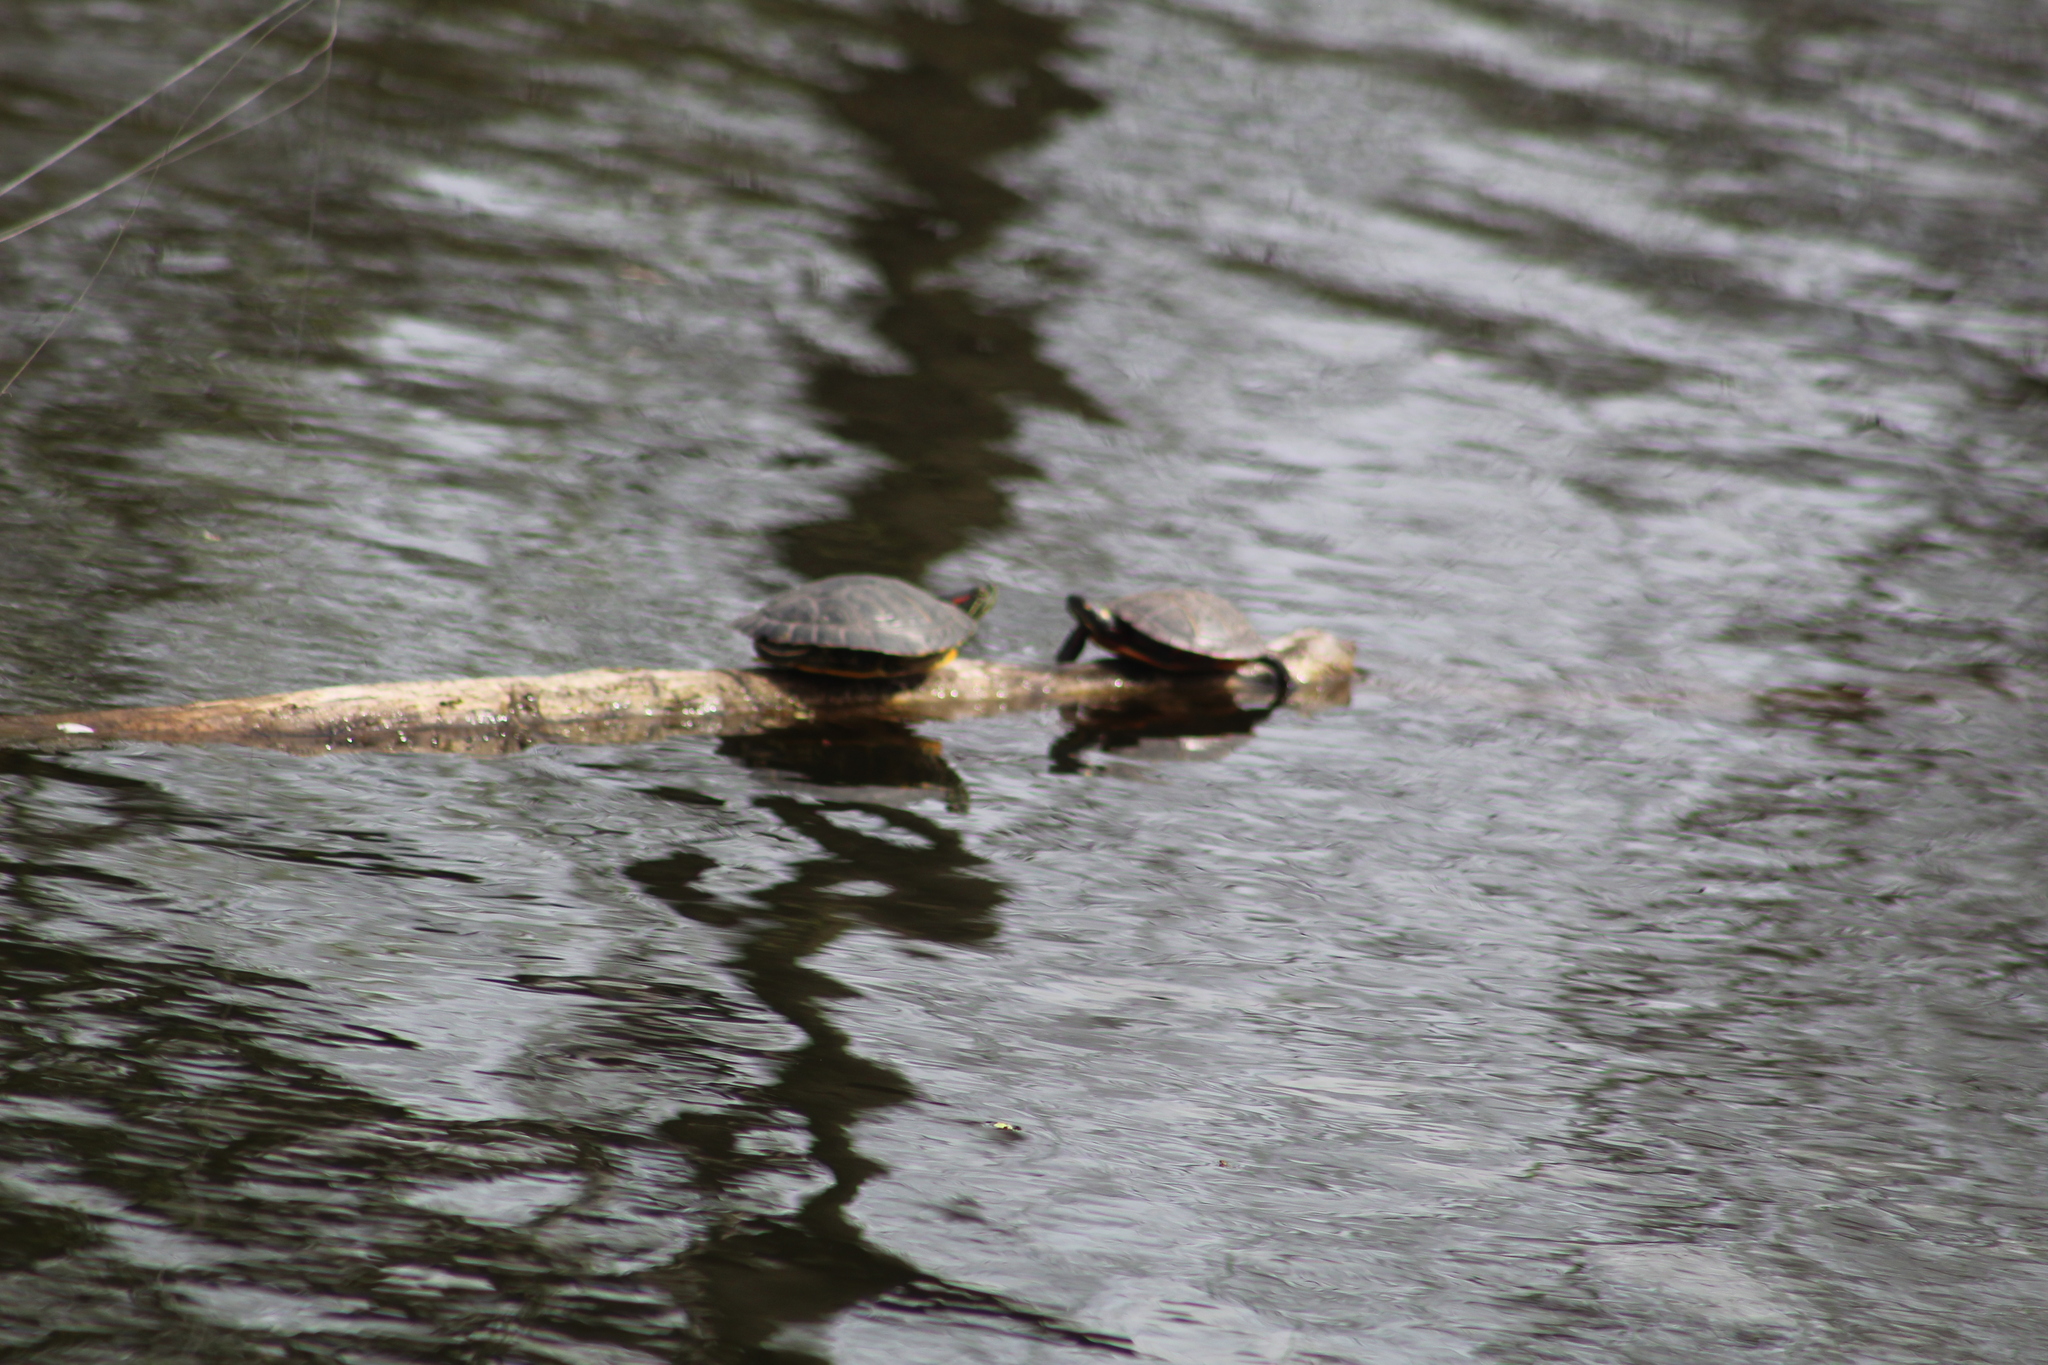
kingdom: Animalia
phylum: Chordata
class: Testudines
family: Emydidae
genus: Pseudemys
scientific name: Pseudemys rubriventris
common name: American red-bellied turtle
